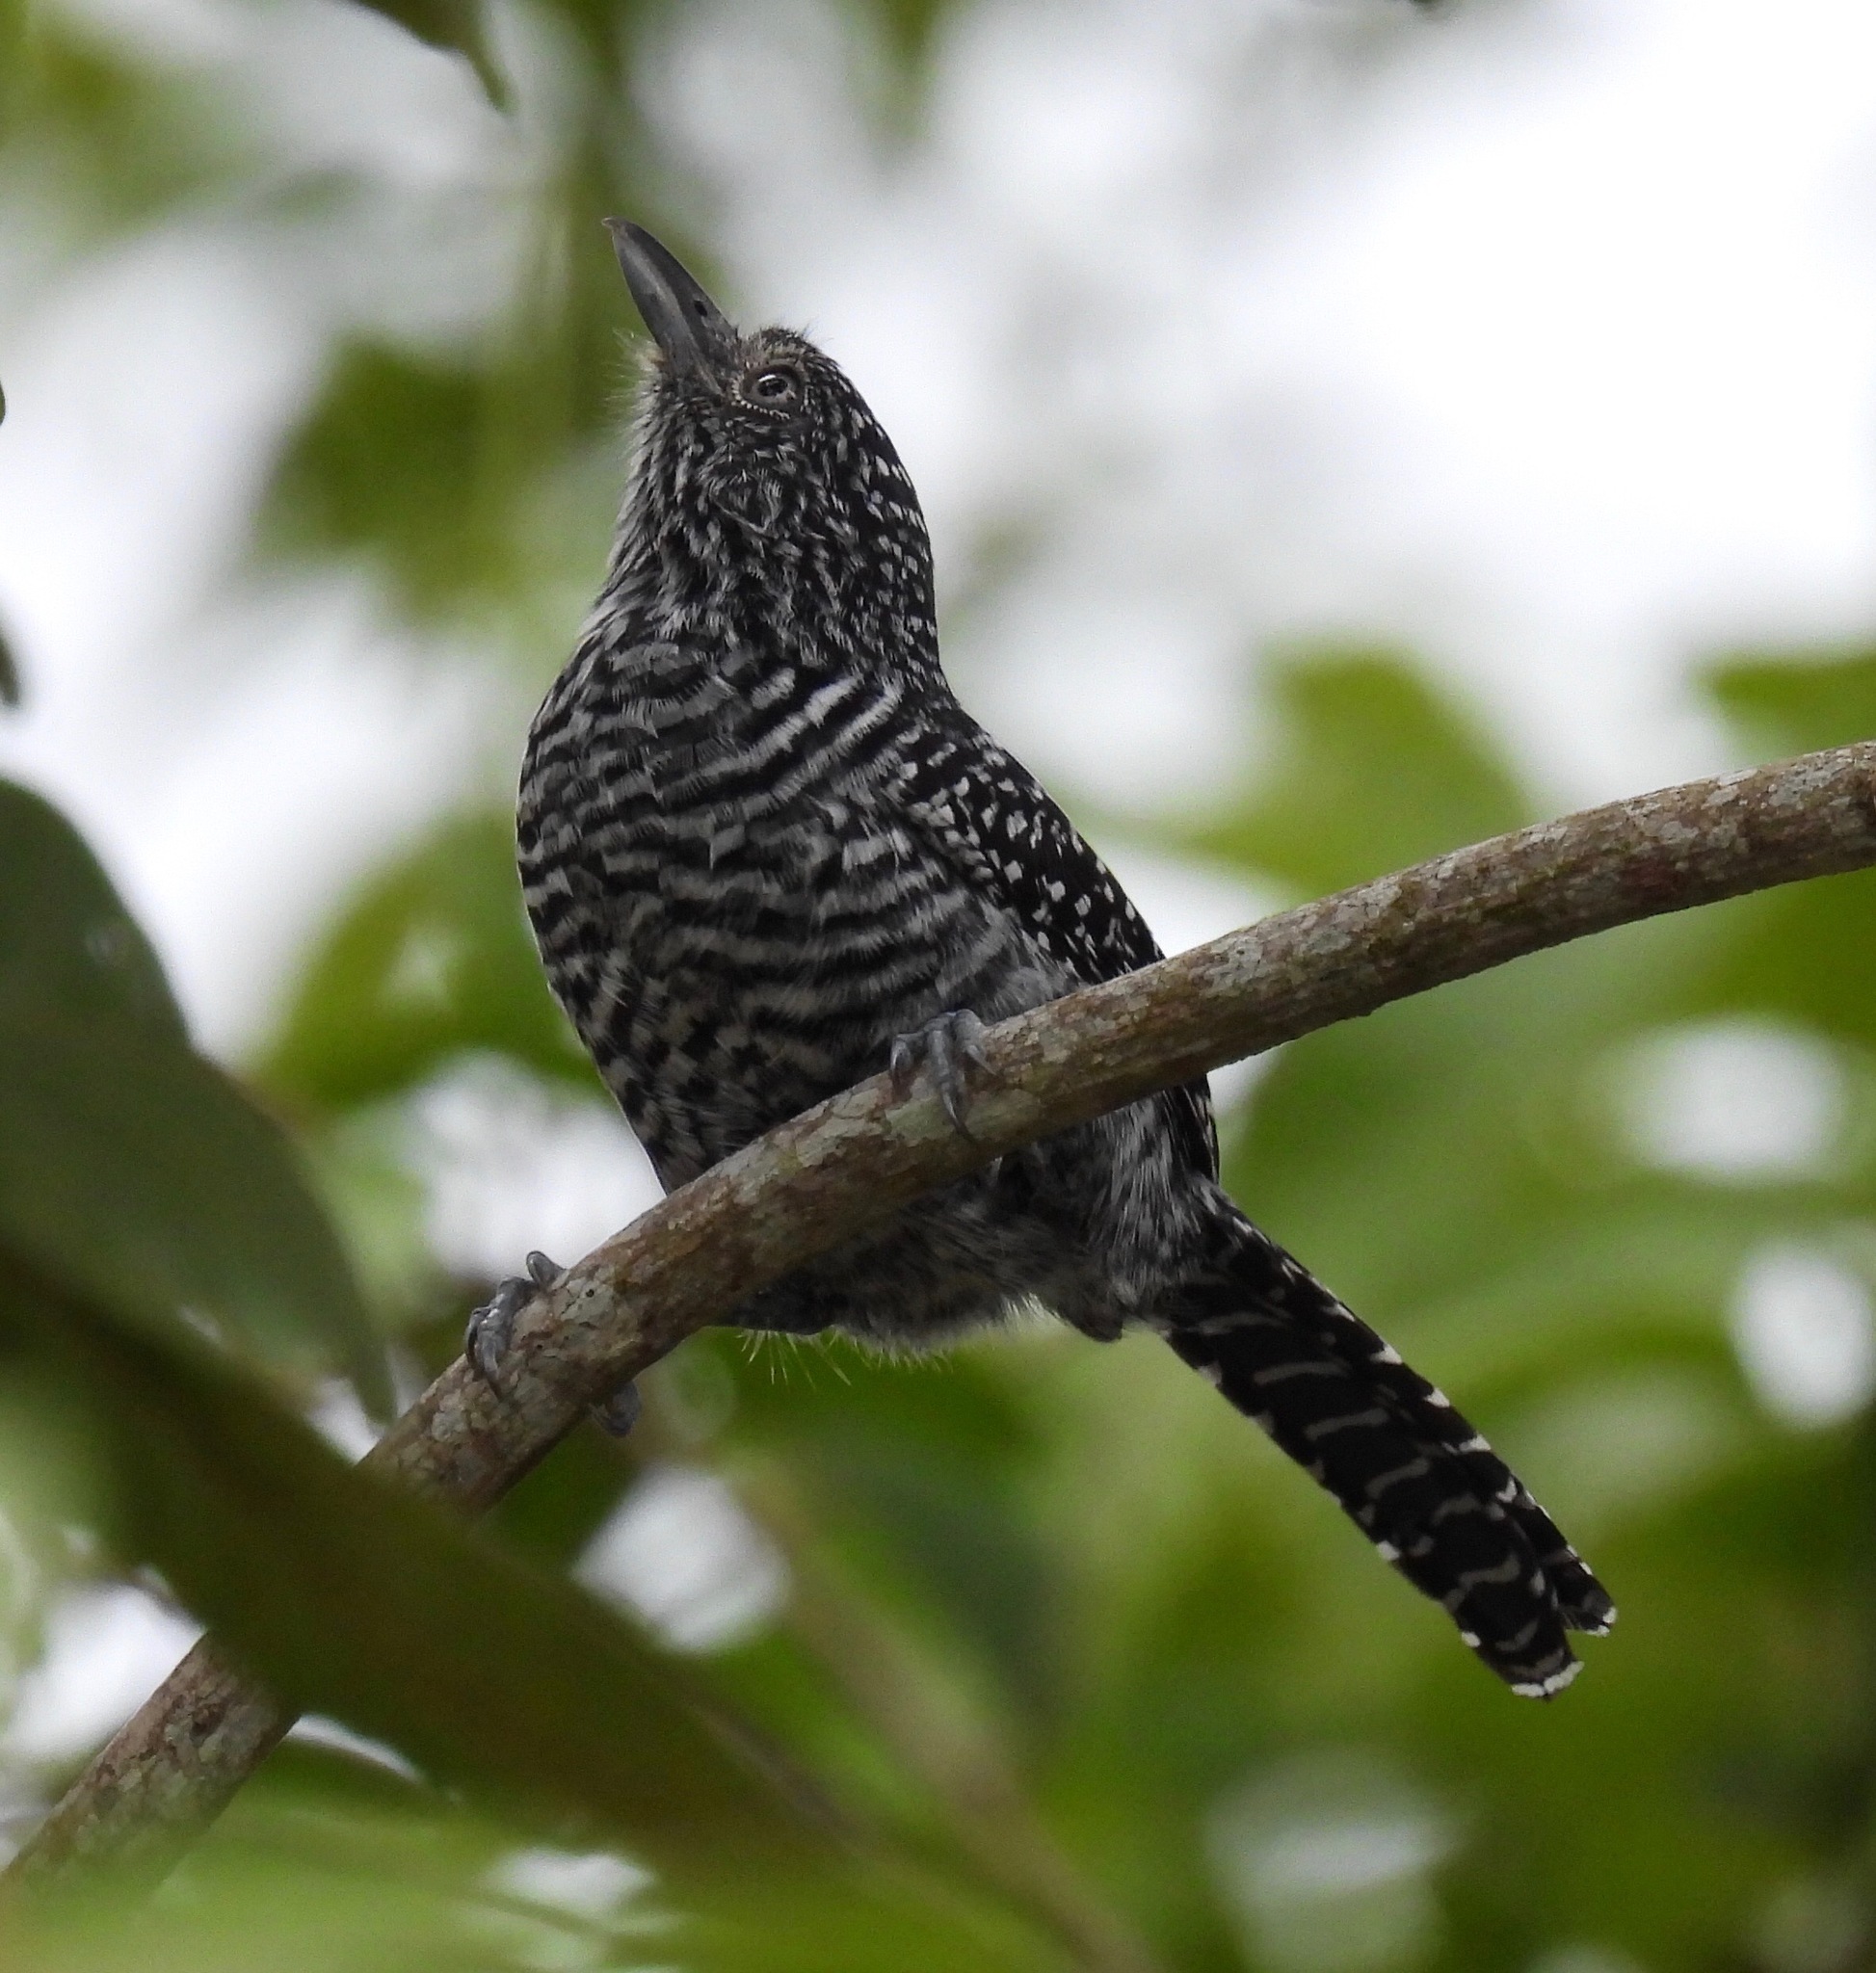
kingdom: Animalia
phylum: Chordata
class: Aves
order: Passeriformes
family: Thamnophilidae
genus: Thamnophilus
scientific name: Thamnophilus multistriatus
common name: Bar-crested antshrike
